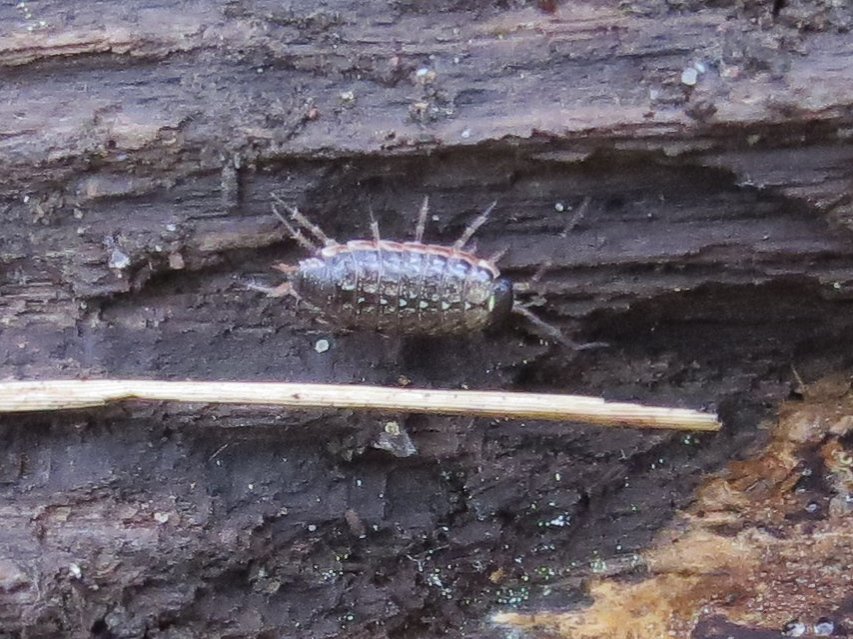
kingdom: Animalia
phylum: Arthropoda
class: Malacostraca
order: Isopoda
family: Philosciidae
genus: Philoscia
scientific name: Philoscia muscorum
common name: Common striped woodlouse
